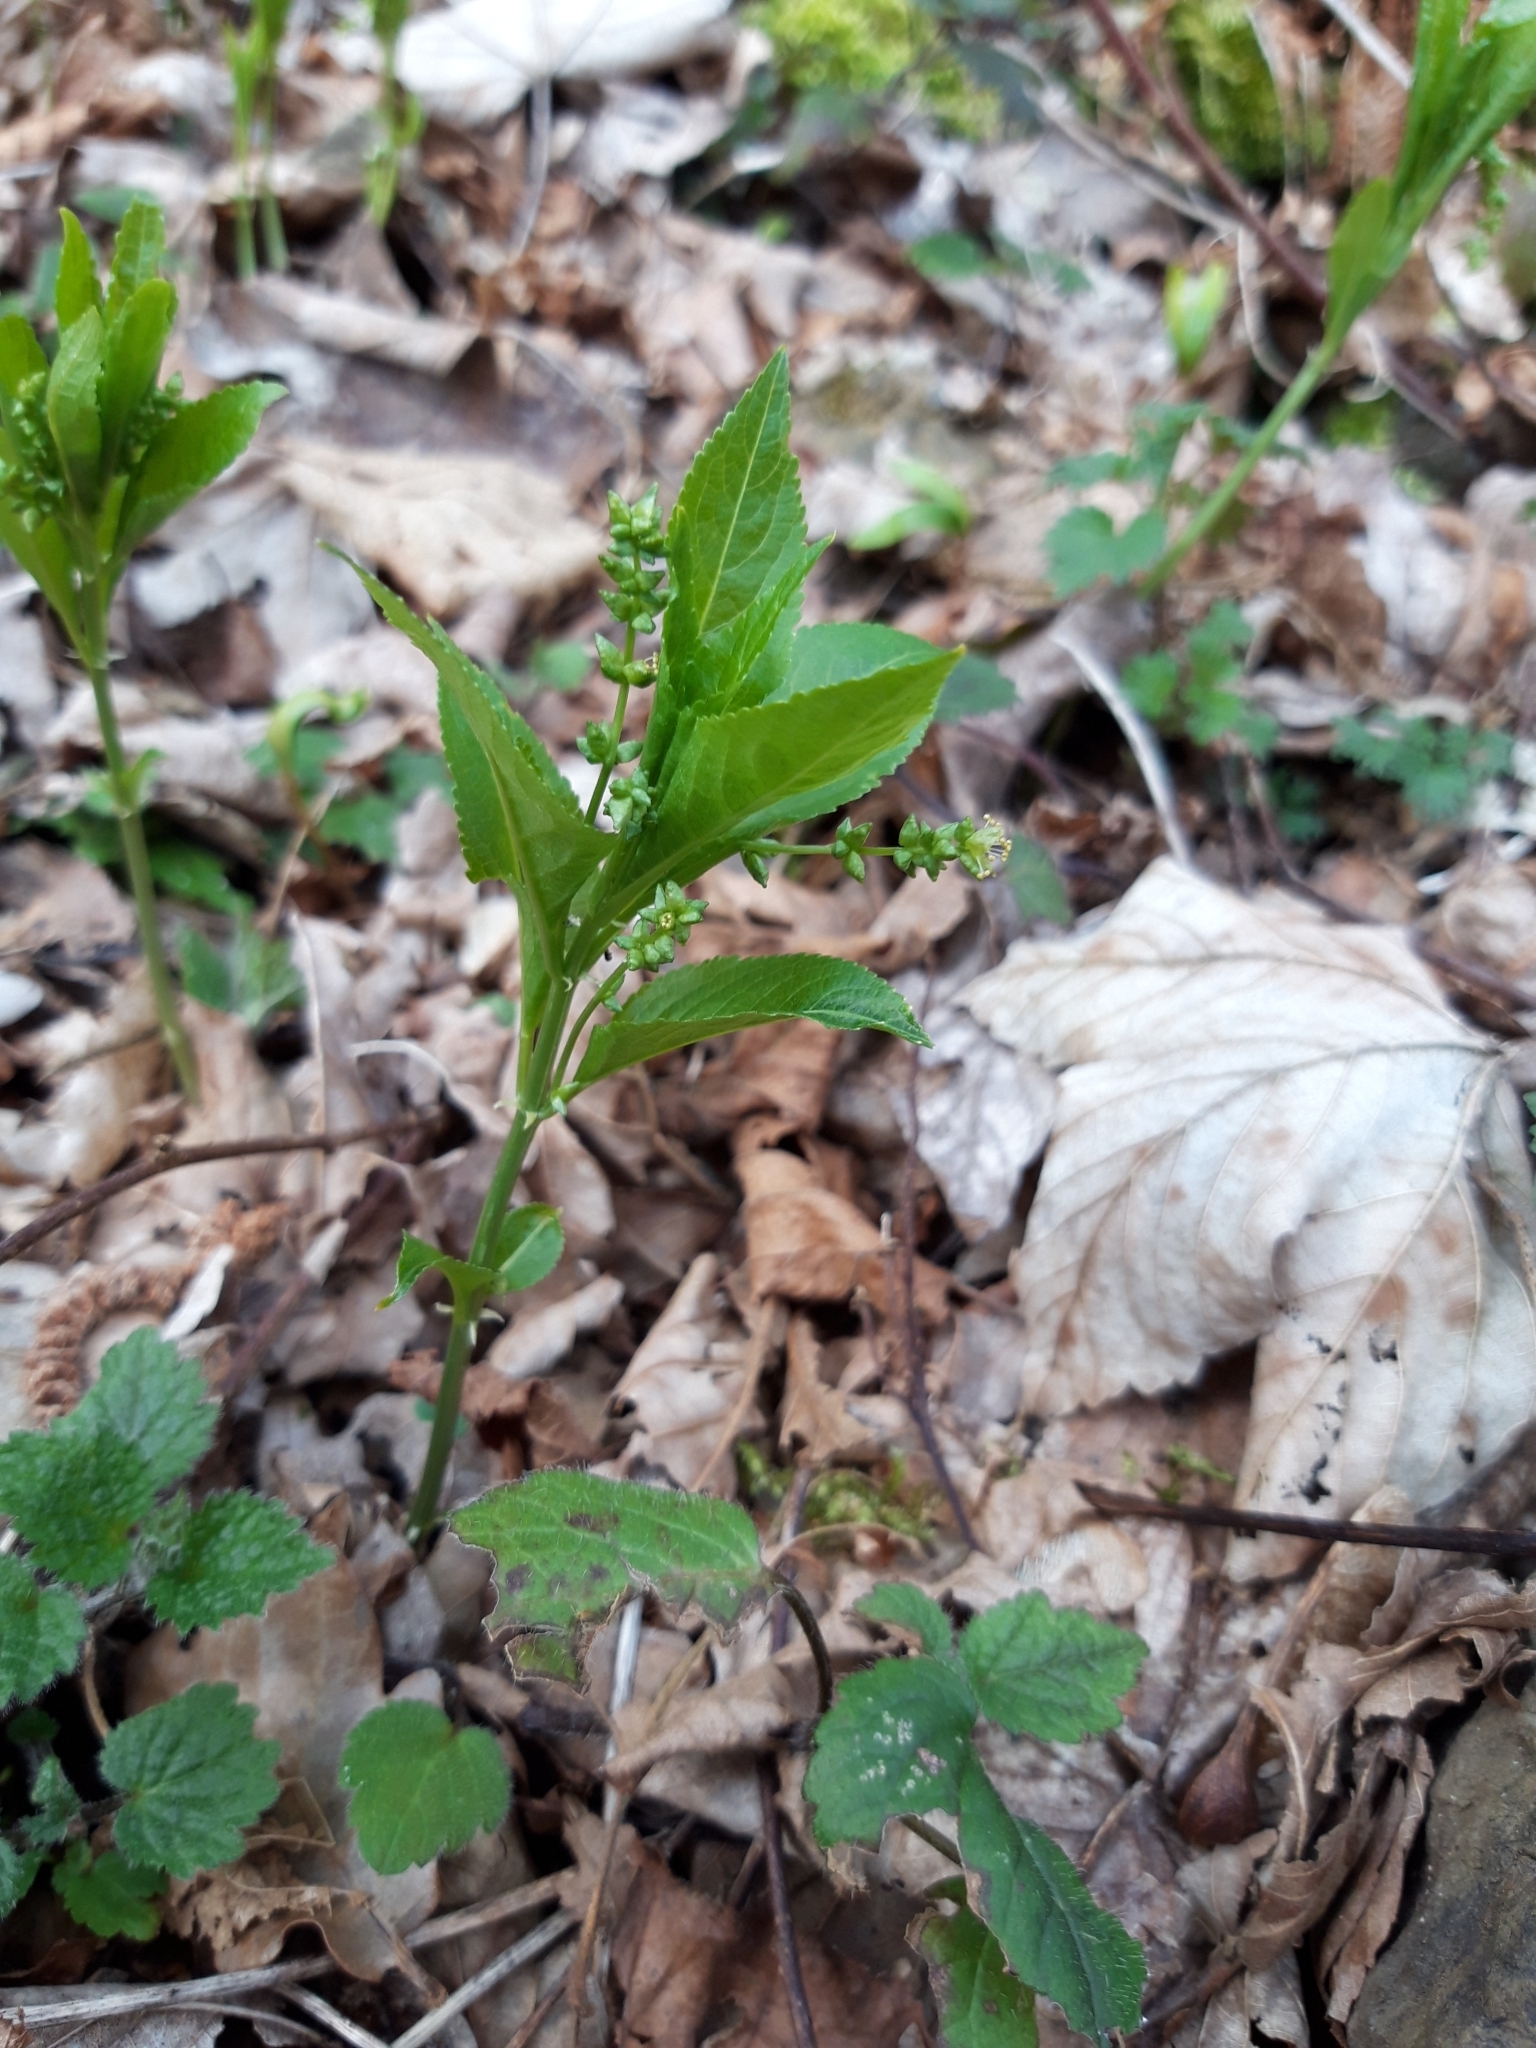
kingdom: Plantae
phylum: Tracheophyta
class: Magnoliopsida
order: Malpighiales
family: Euphorbiaceae
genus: Mercurialis
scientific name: Mercurialis perennis
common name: Dog mercury
